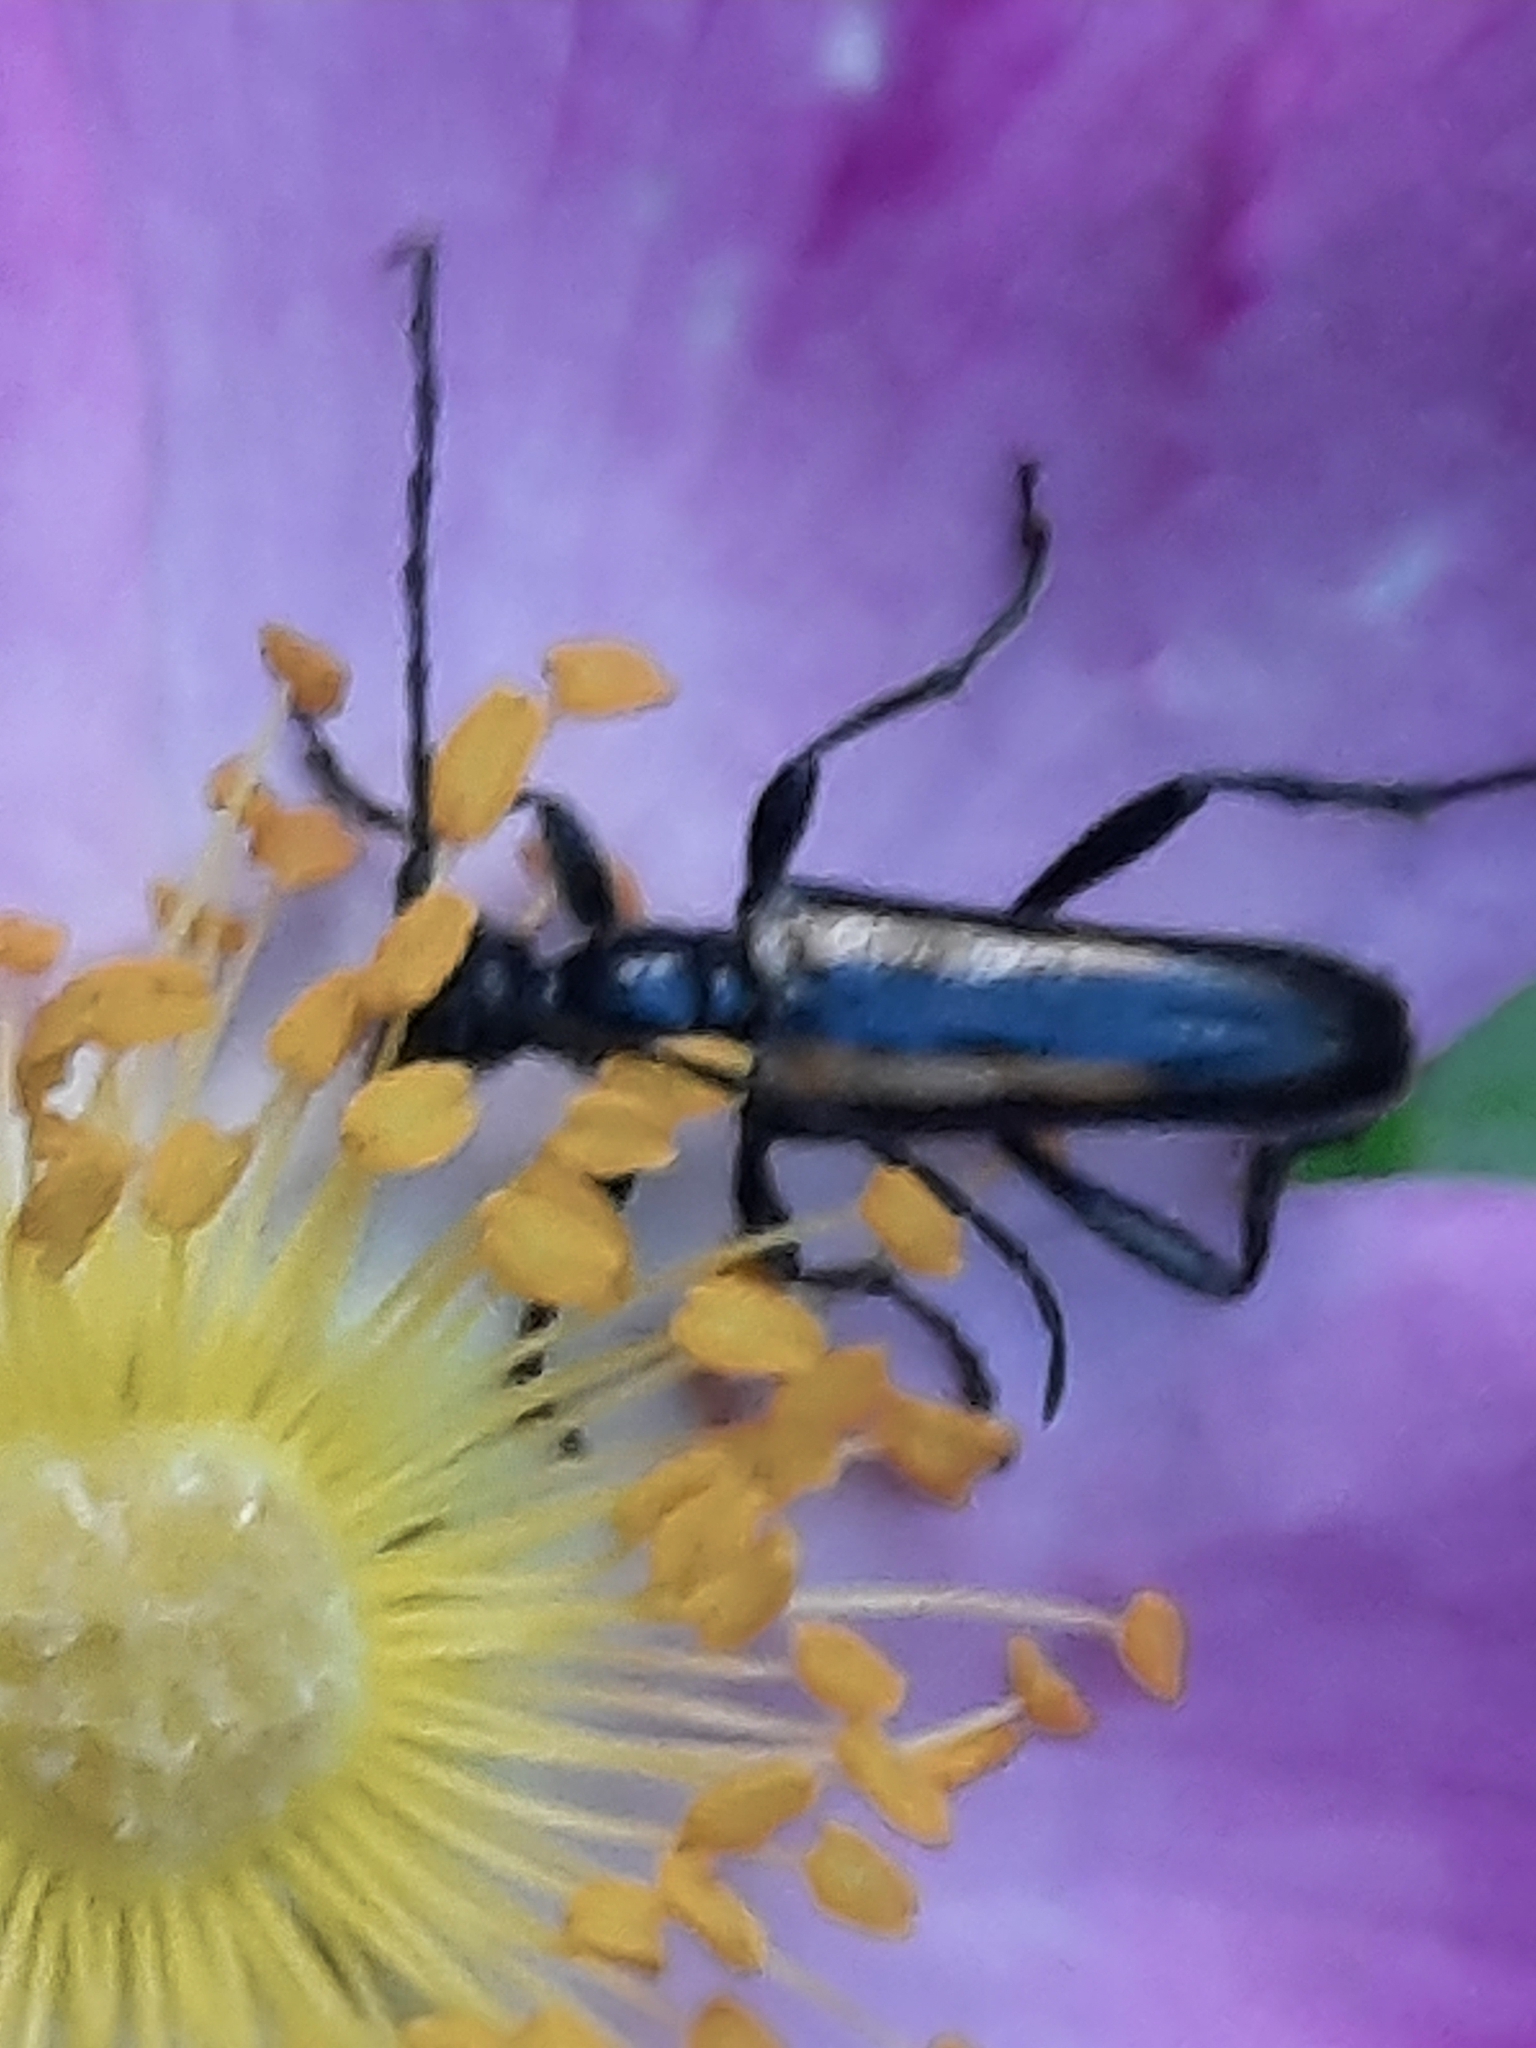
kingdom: Animalia
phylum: Arthropoda
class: Insecta
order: Coleoptera
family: Cerambycidae
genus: Strangalepta
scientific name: Strangalepta abbreviata
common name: Strangalepta flower longhorn beetle
